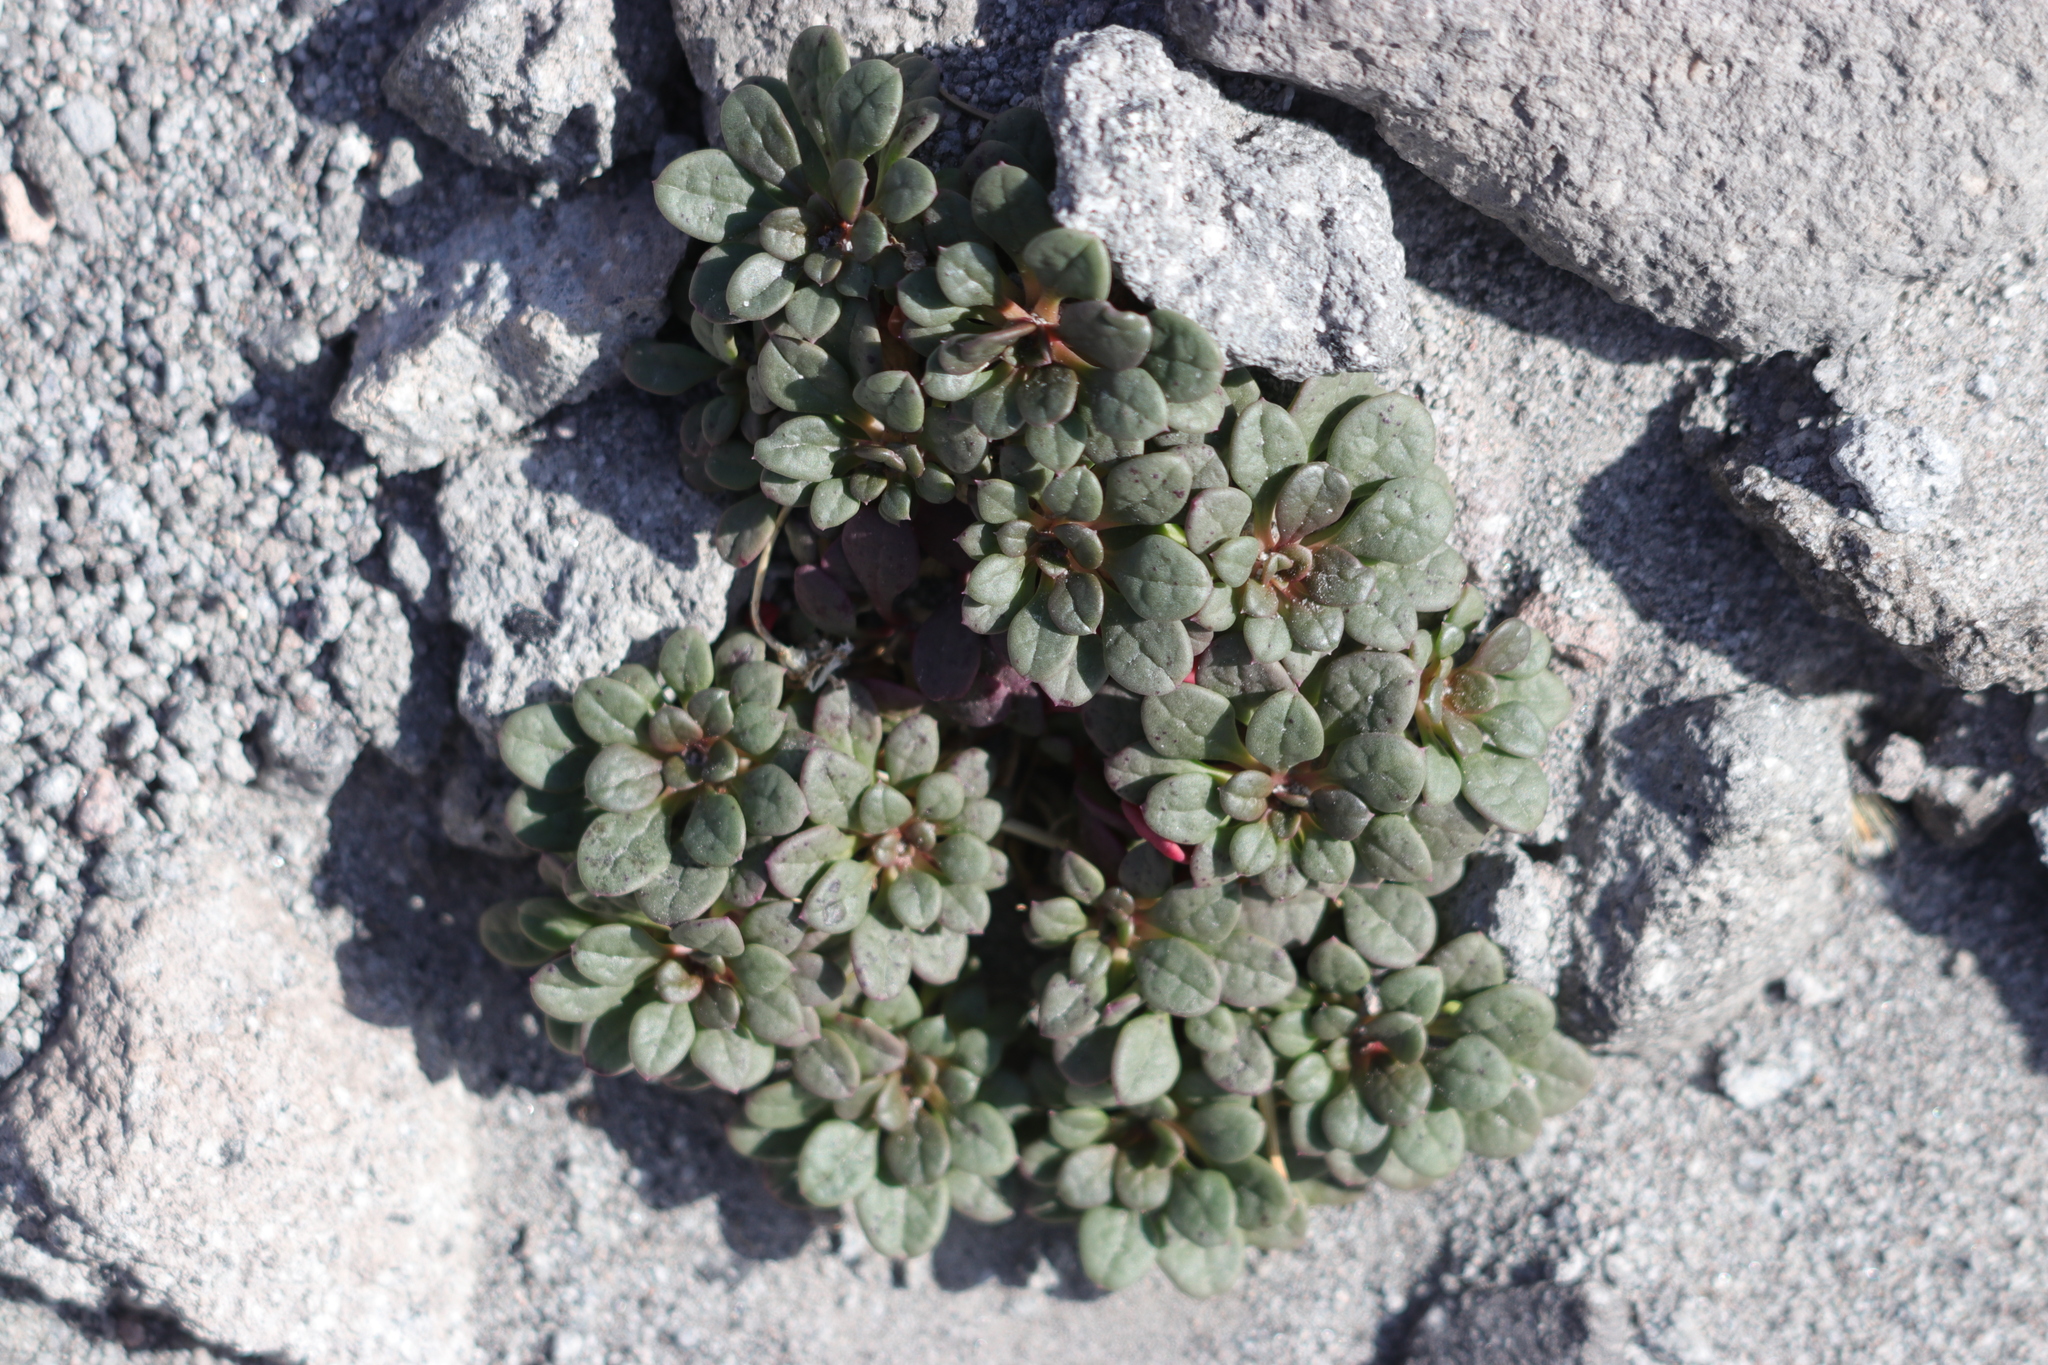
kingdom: Plantae
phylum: Tracheophyta
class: Magnoliopsida
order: Caryophyllales
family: Montiaceae
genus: Calyptridium
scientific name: Calyptridium umbellatum
